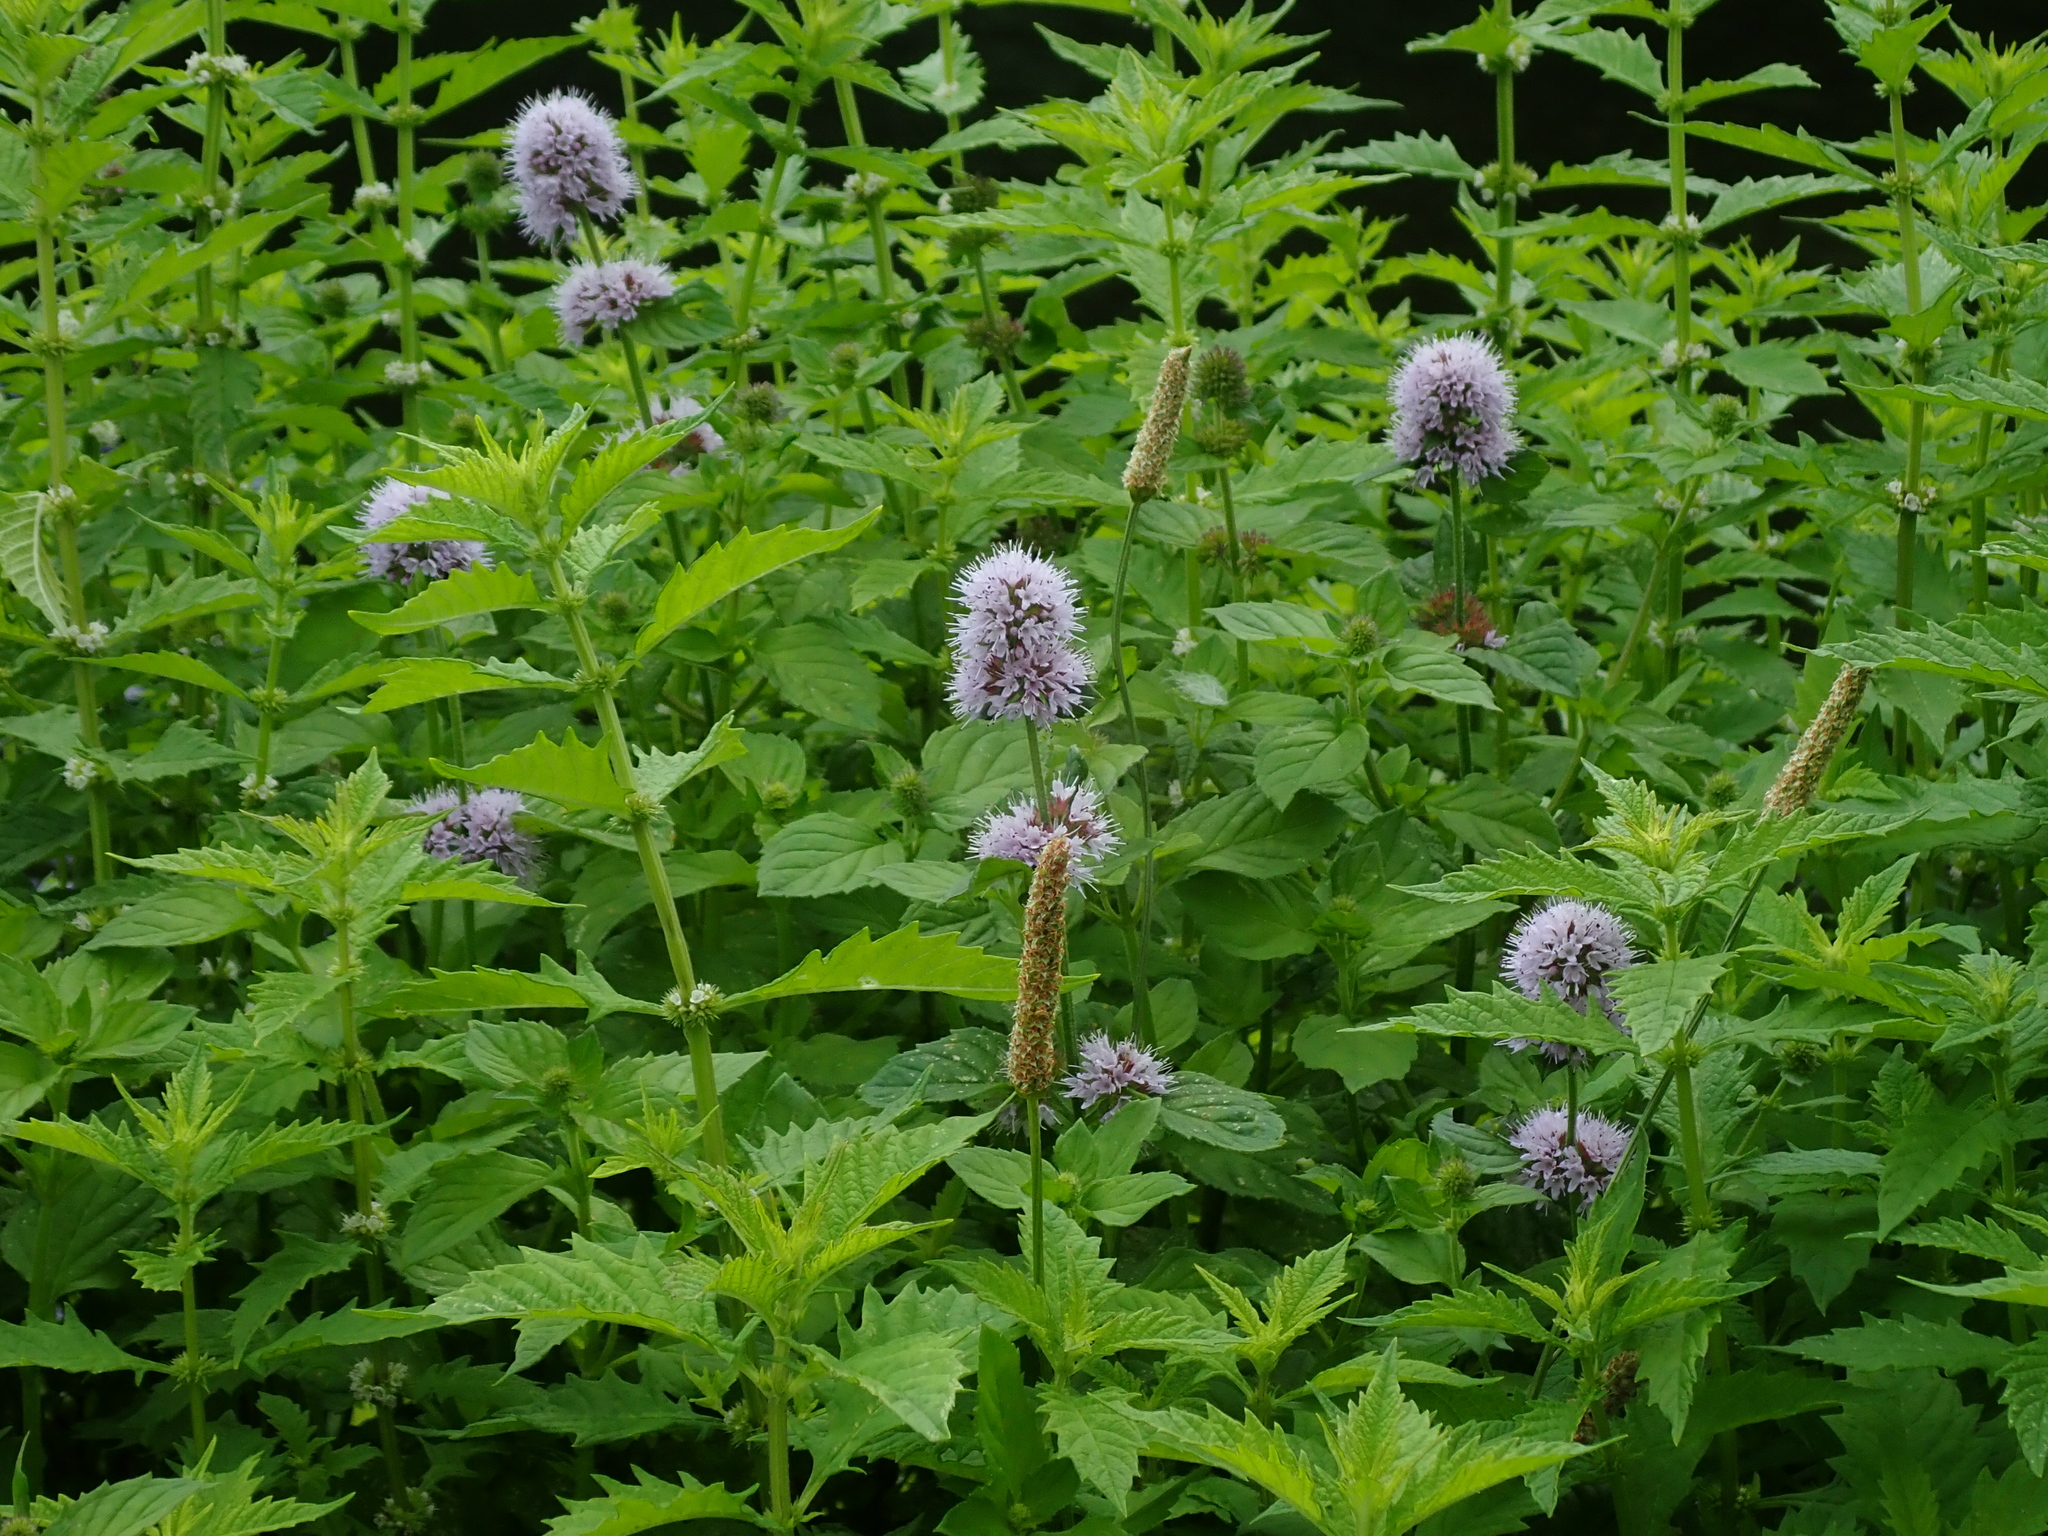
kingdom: Plantae
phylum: Tracheophyta
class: Magnoliopsida
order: Lamiales
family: Lamiaceae
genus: Mentha
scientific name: Mentha aquatica
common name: Water mint
